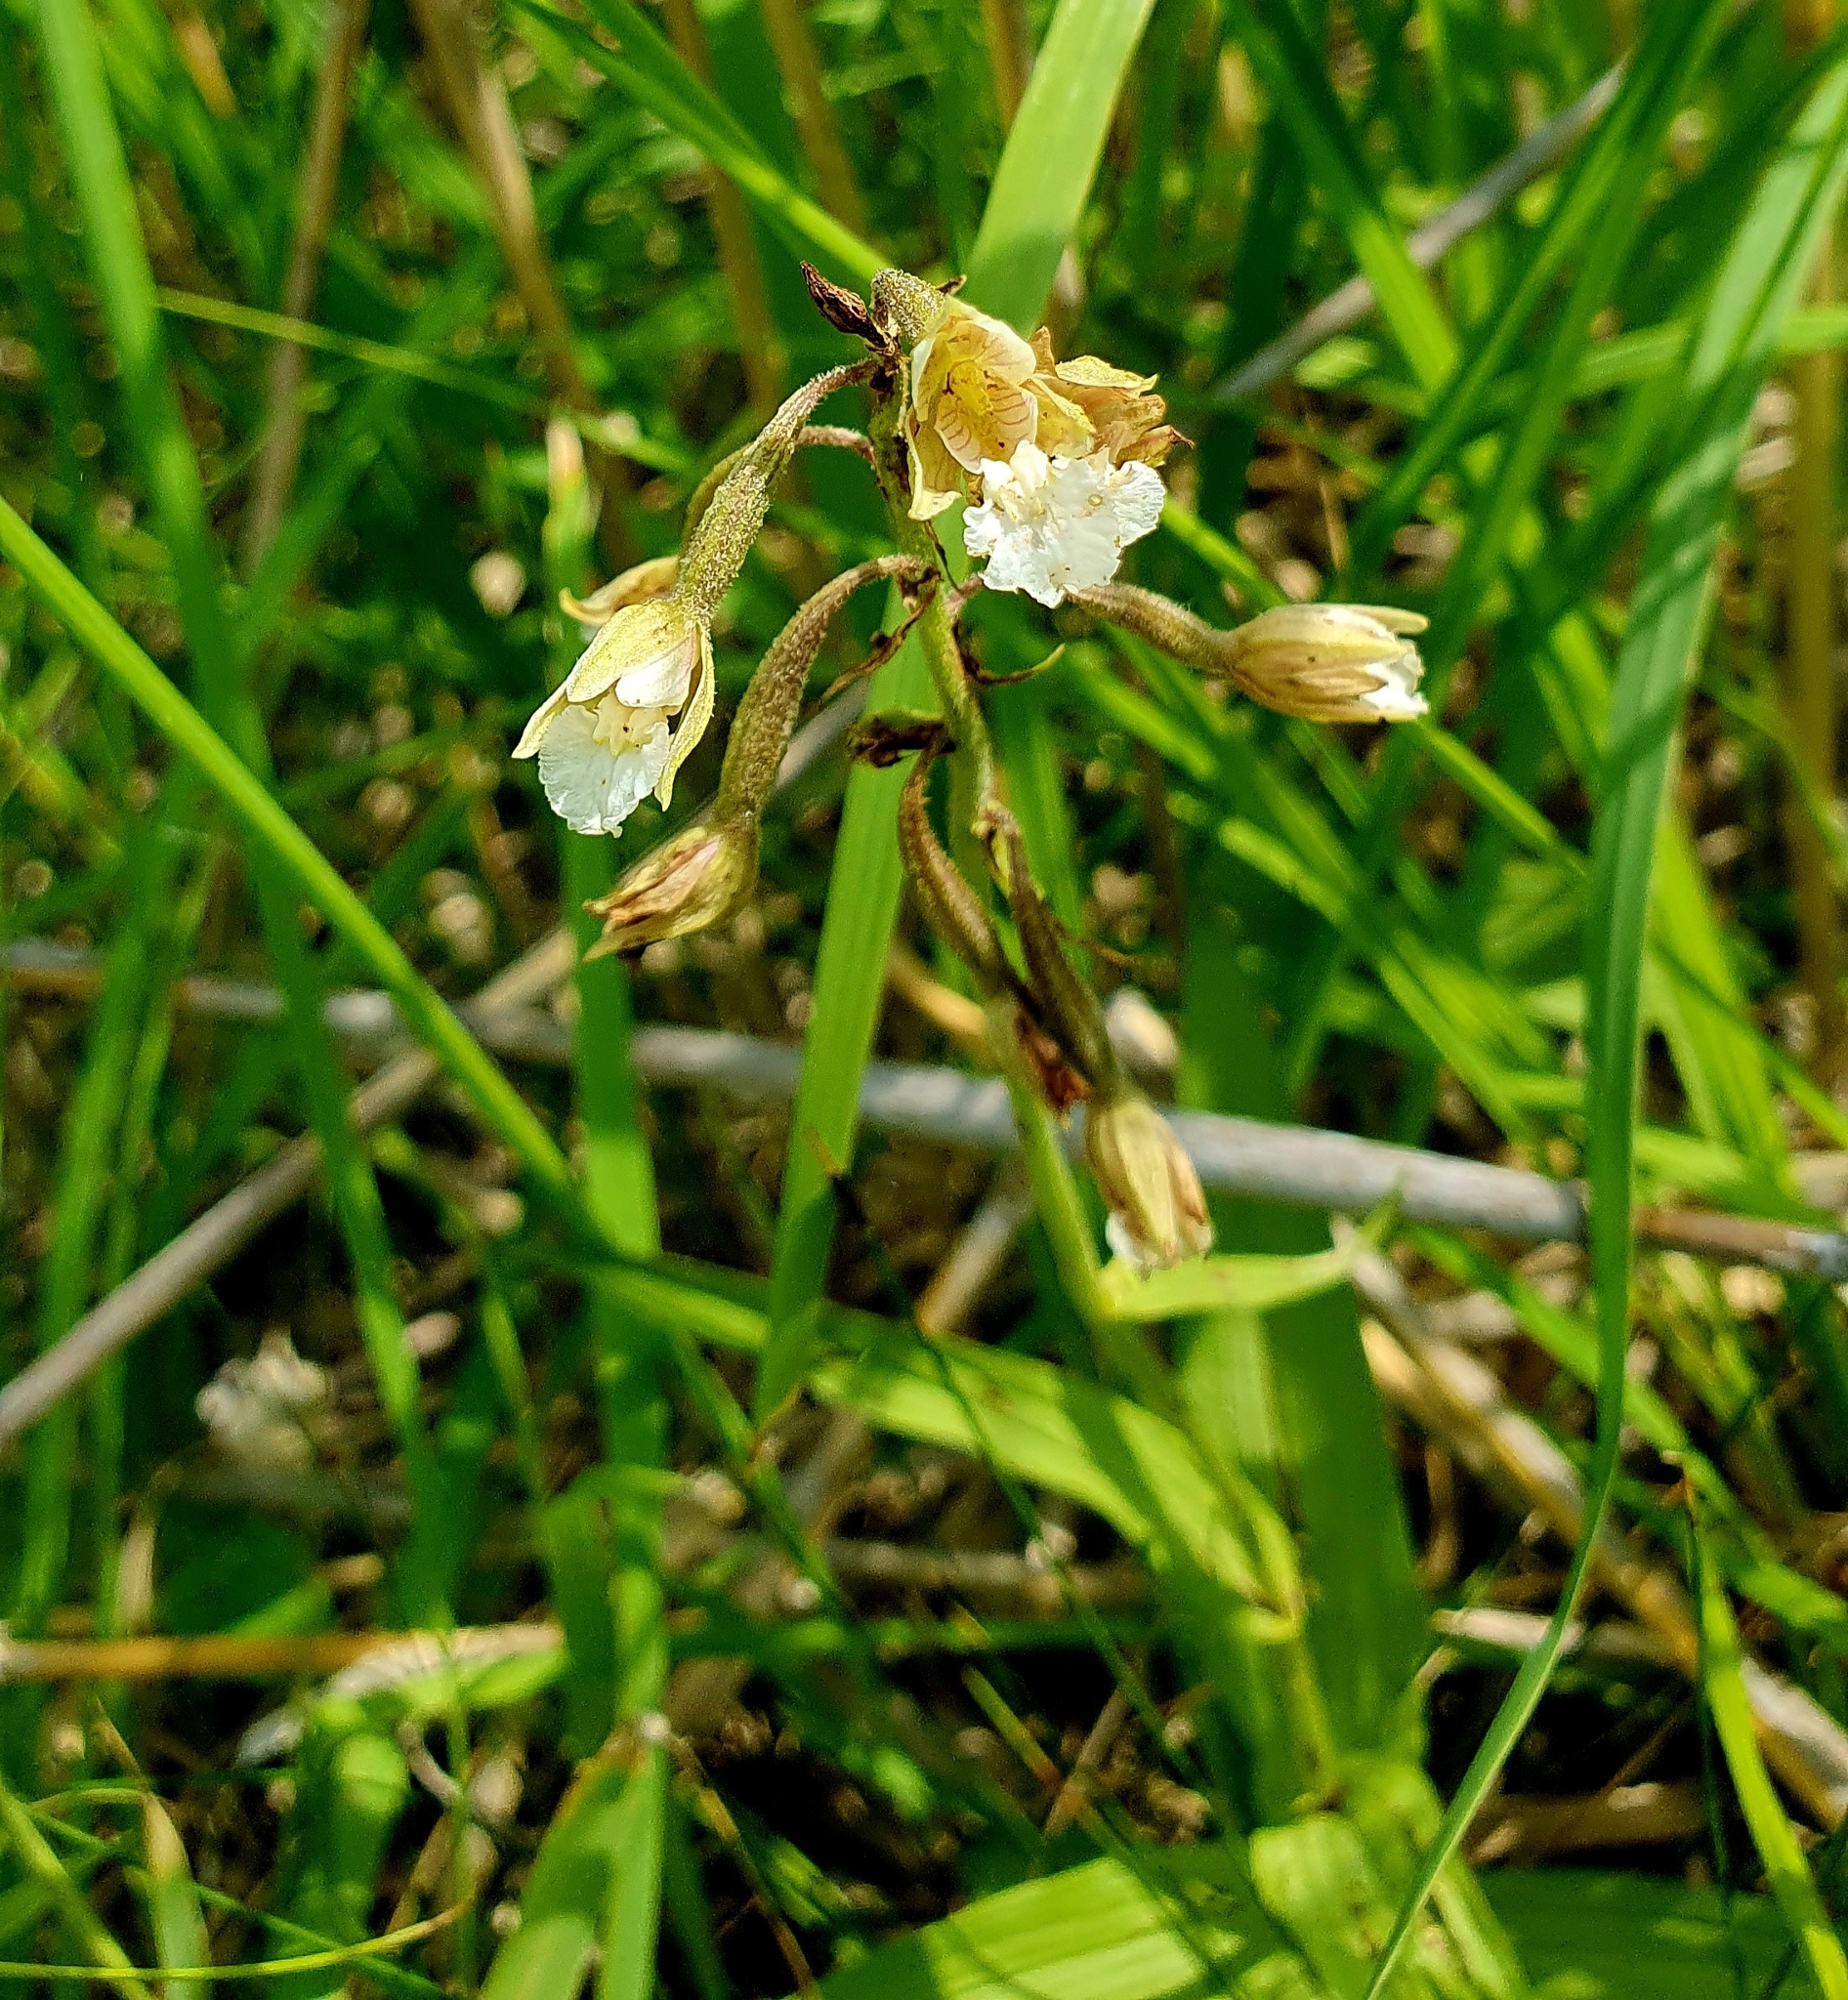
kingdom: Plantae
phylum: Tracheophyta
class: Liliopsida
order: Asparagales
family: Orchidaceae
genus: Epipactis
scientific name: Epipactis palustris
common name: Marsh helleborine
